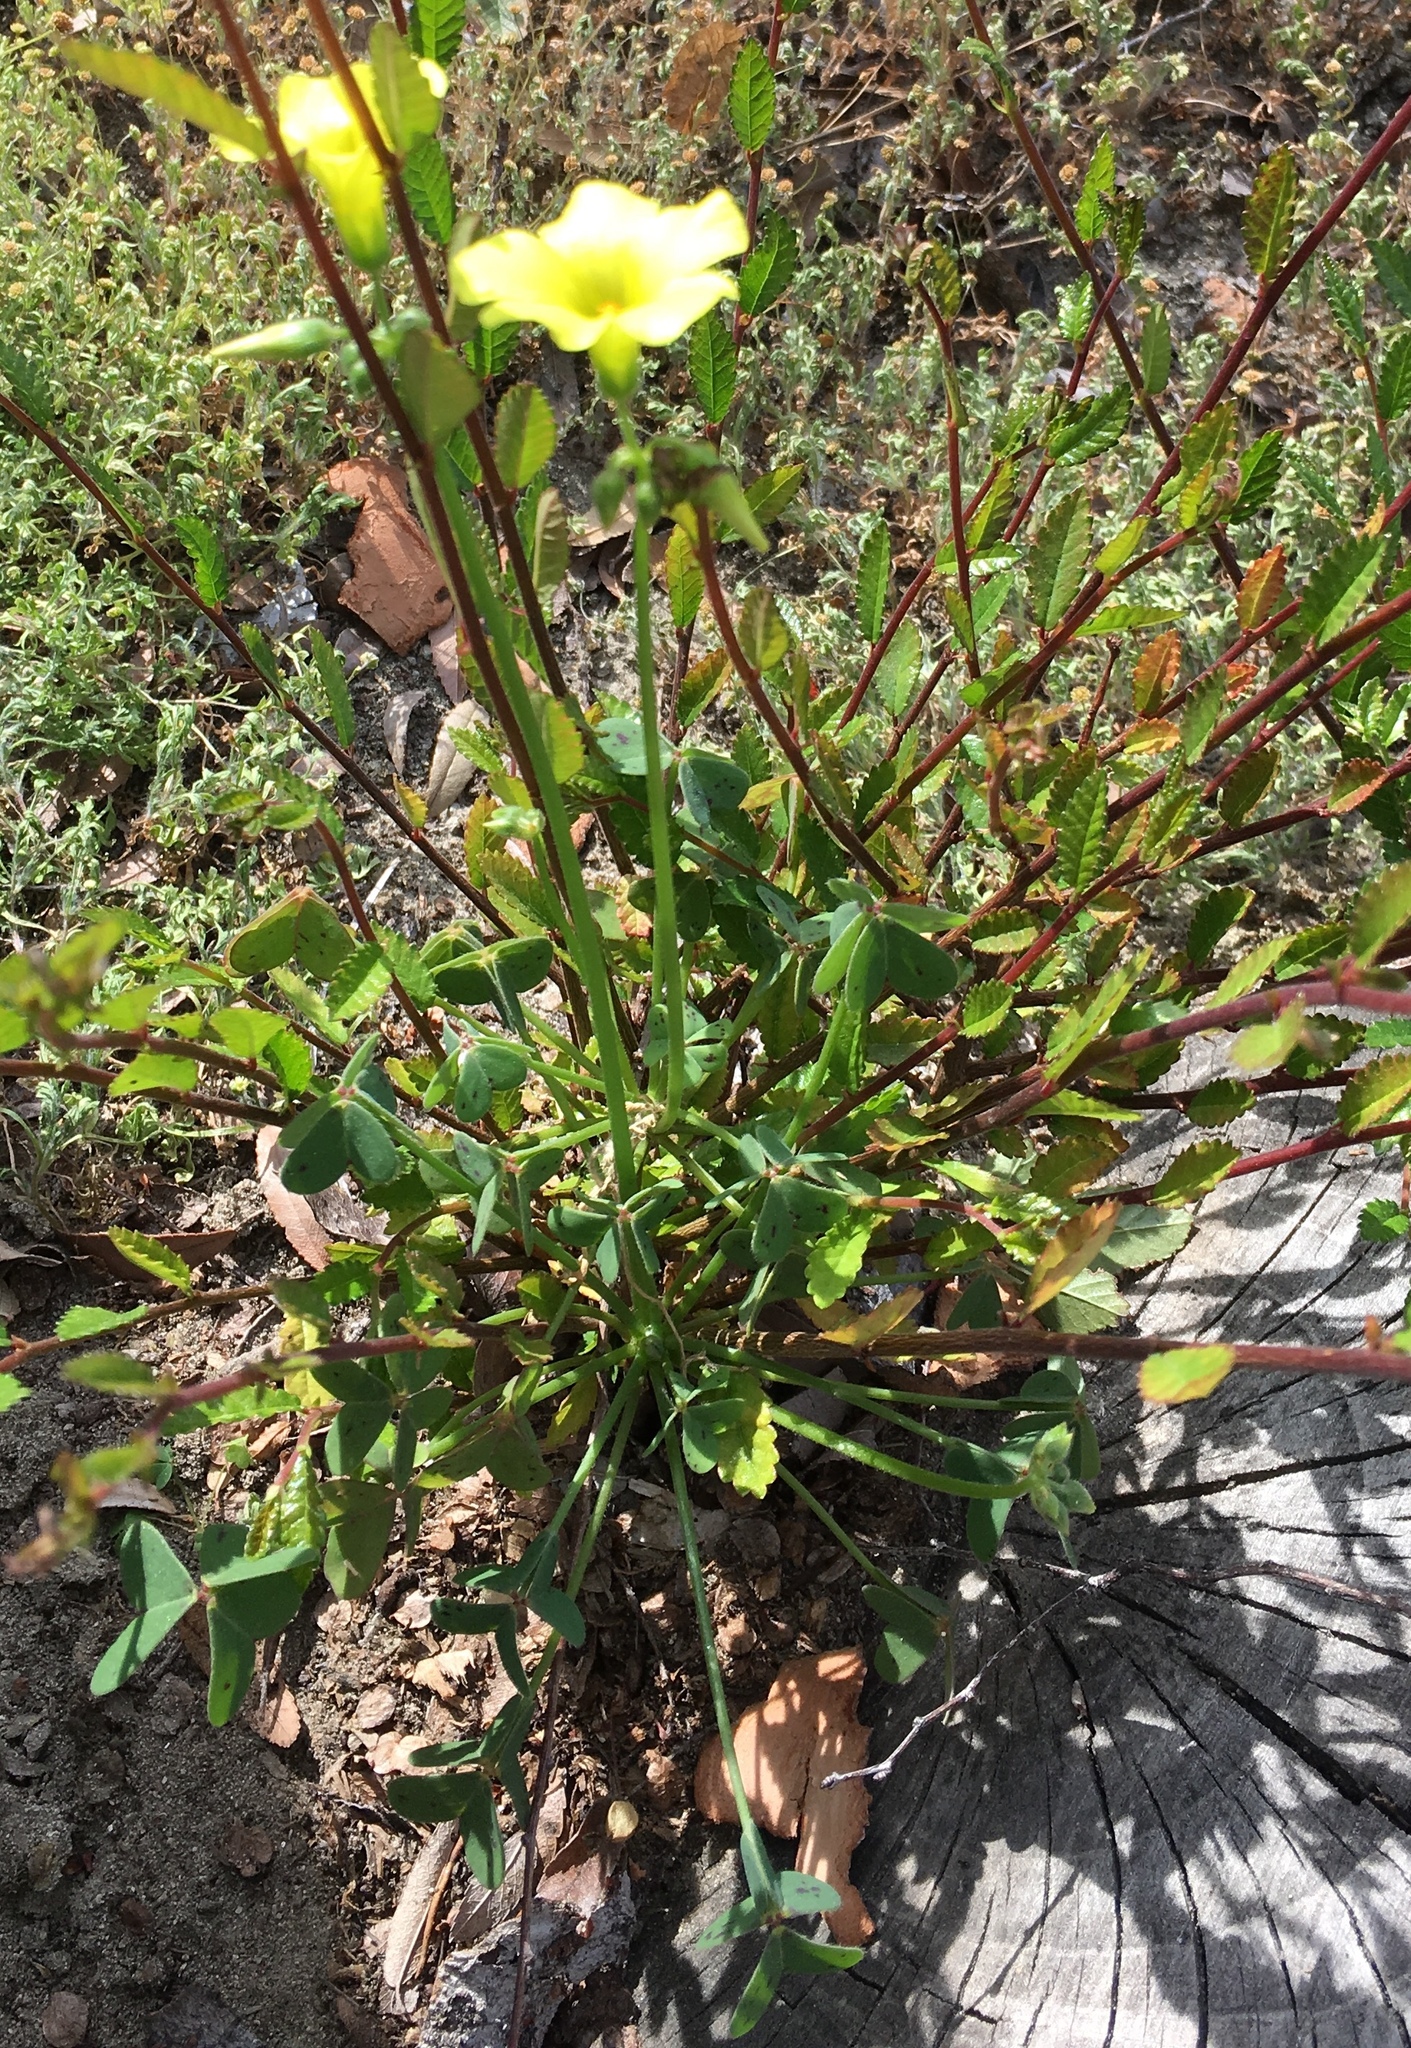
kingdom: Plantae
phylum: Tracheophyta
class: Magnoliopsida
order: Oxalidales
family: Oxalidaceae
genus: Oxalis
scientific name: Oxalis pes-caprae
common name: Bermuda-buttercup
